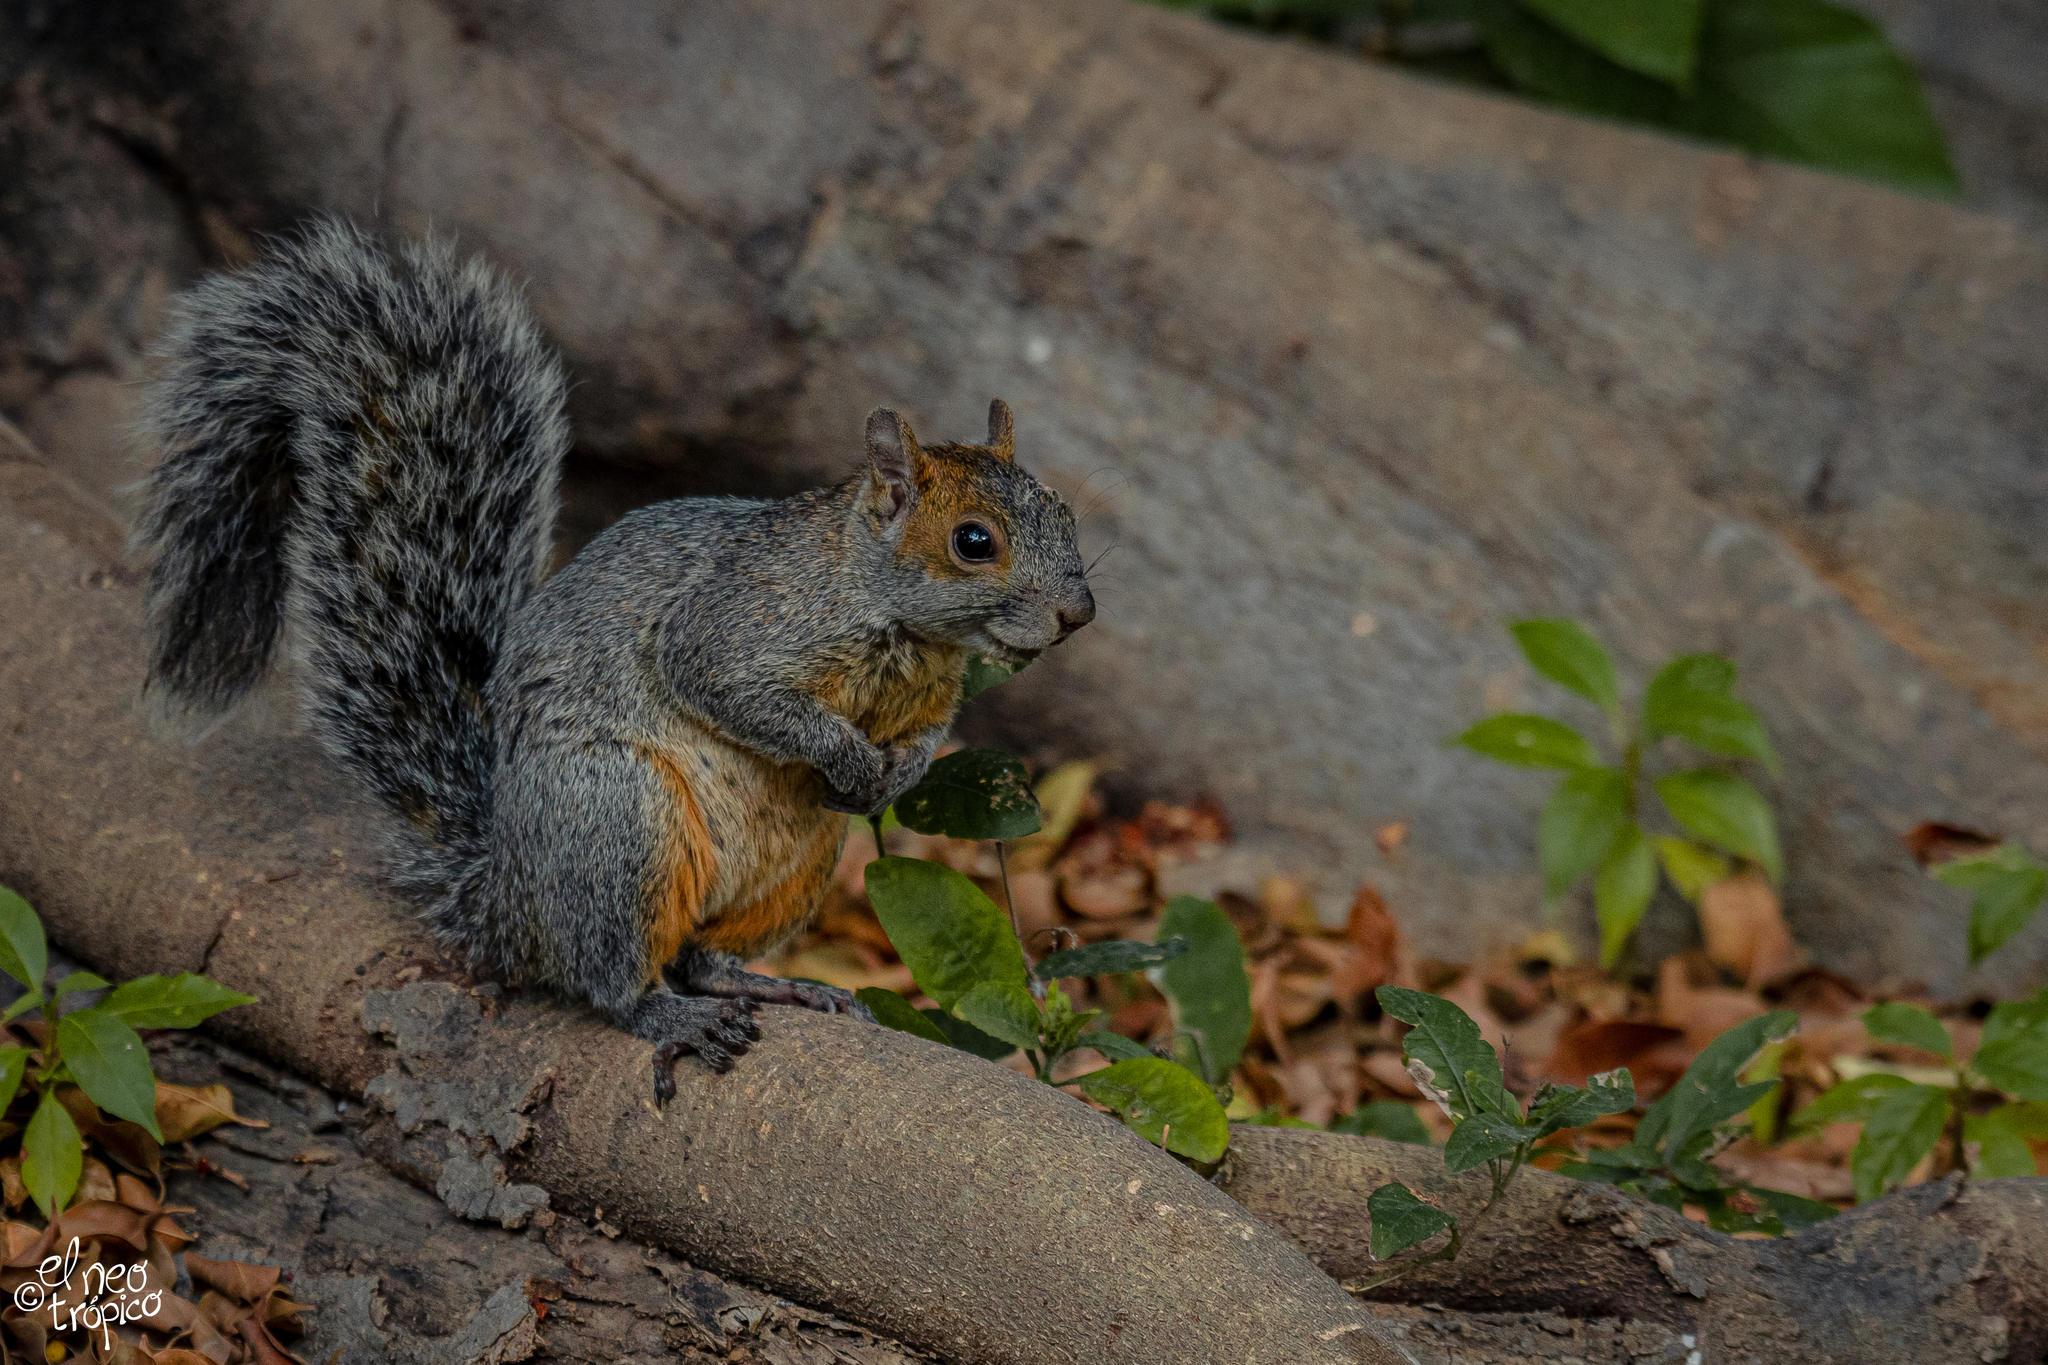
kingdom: Animalia
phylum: Chordata
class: Mammalia
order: Rodentia
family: Sciuridae
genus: Sciurus
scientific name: Sciurus aureogaster
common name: Red-bellied squirrel
